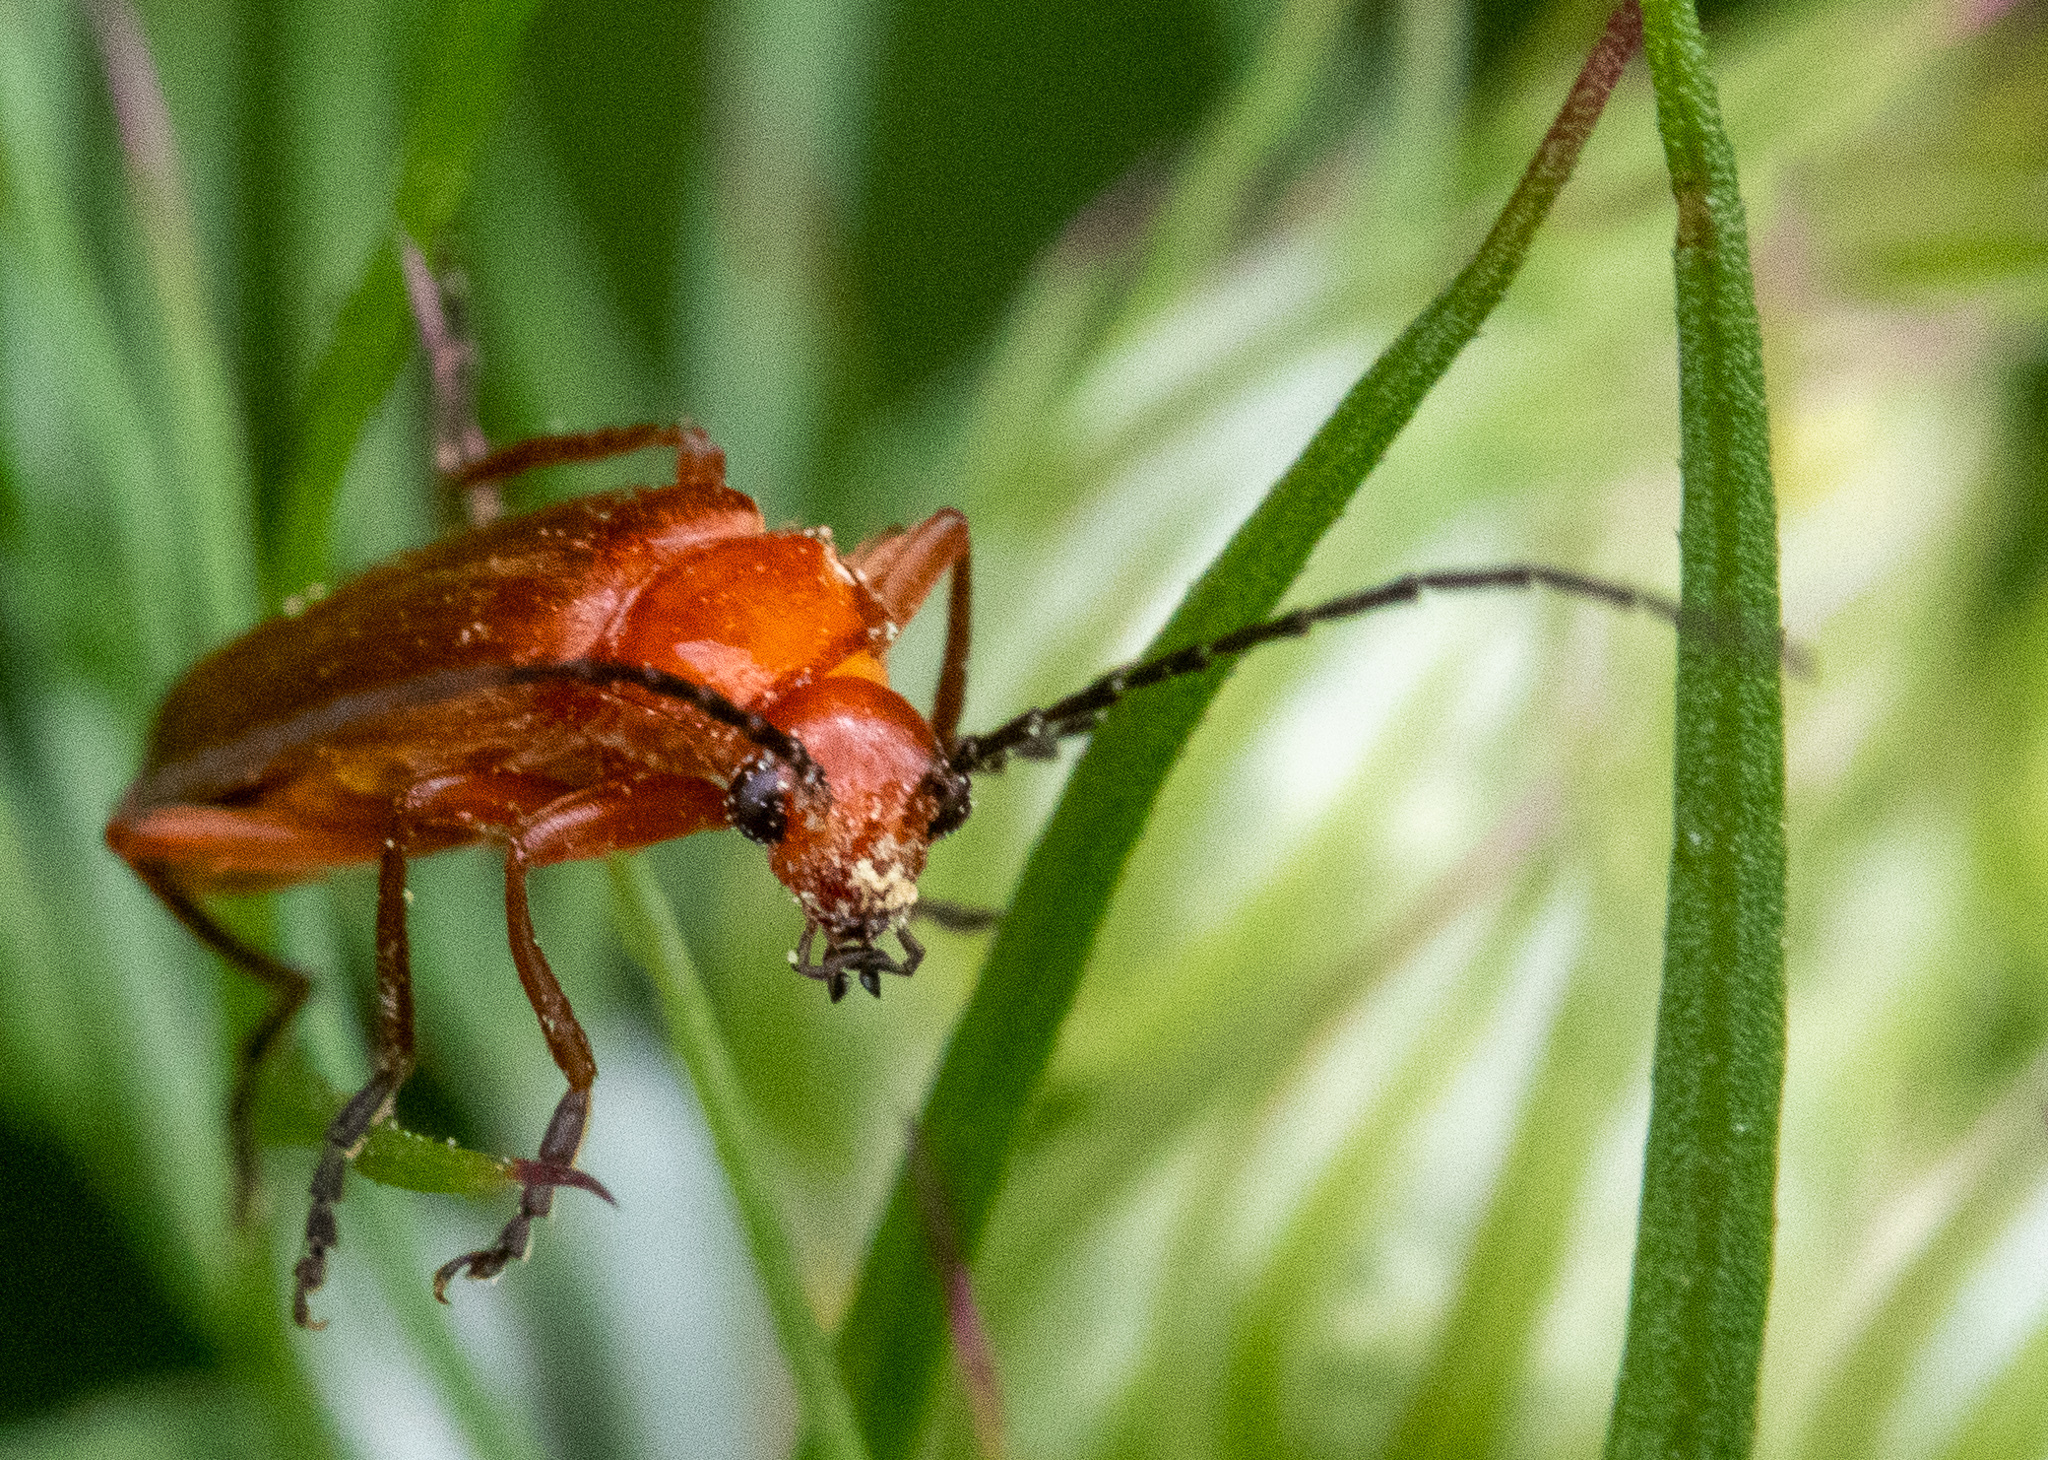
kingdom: Animalia
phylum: Arthropoda
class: Insecta
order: Coleoptera
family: Cantharidae
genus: Rhagonycha
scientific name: Rhagonycha fulva
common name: Common red soldier beetle
